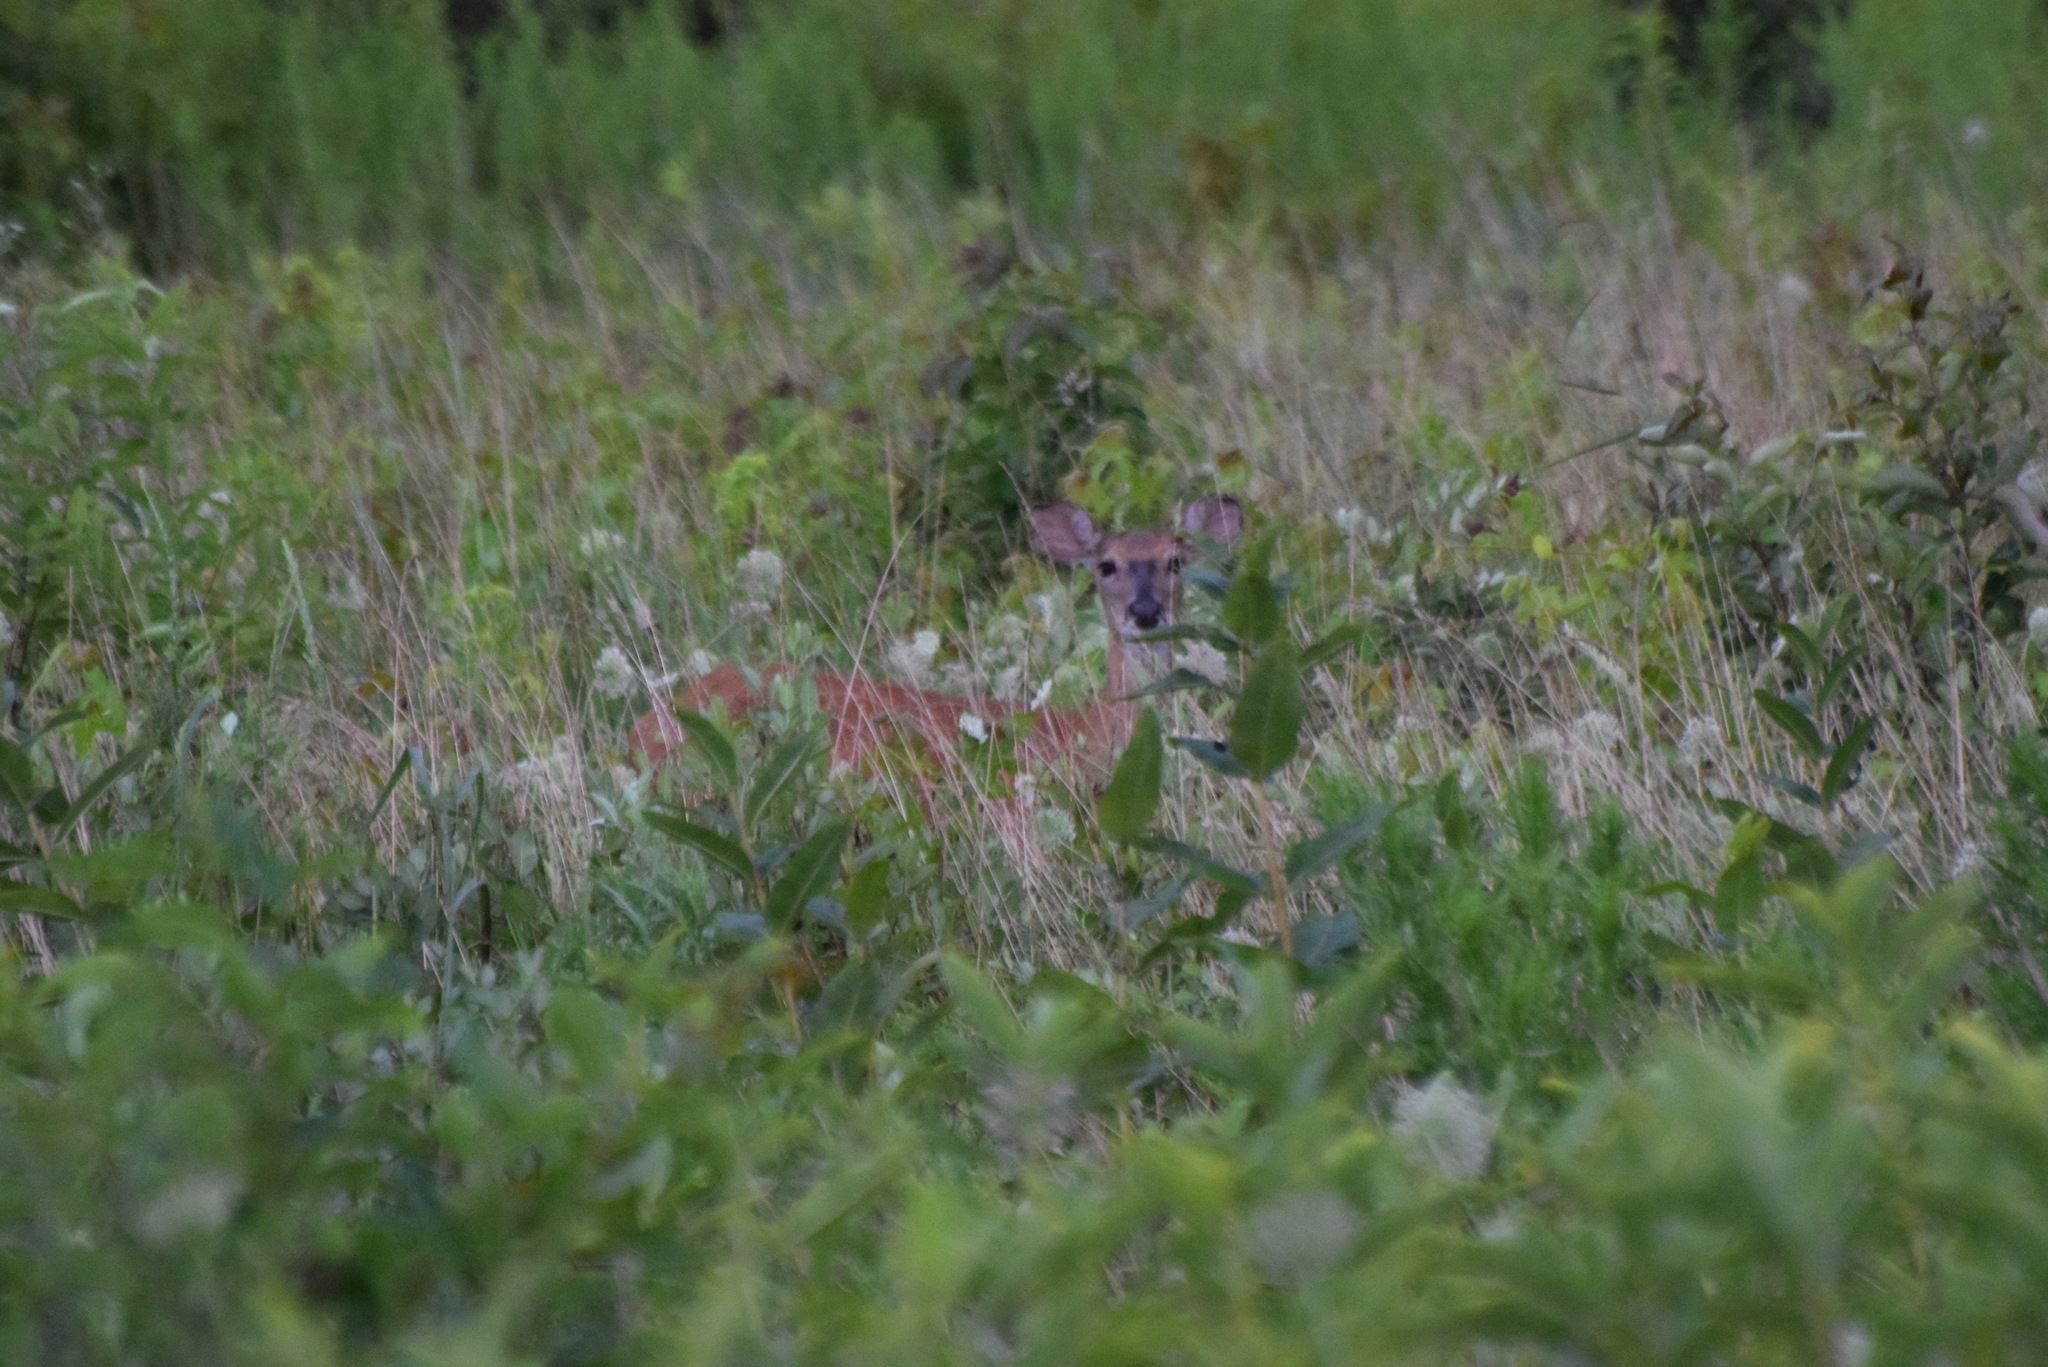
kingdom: Animalia
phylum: Chordata
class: Mammalia
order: Artiodactyla
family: Cervidae
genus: Odocoileus
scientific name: Odocoileus virginianus
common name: White-tailed deer
